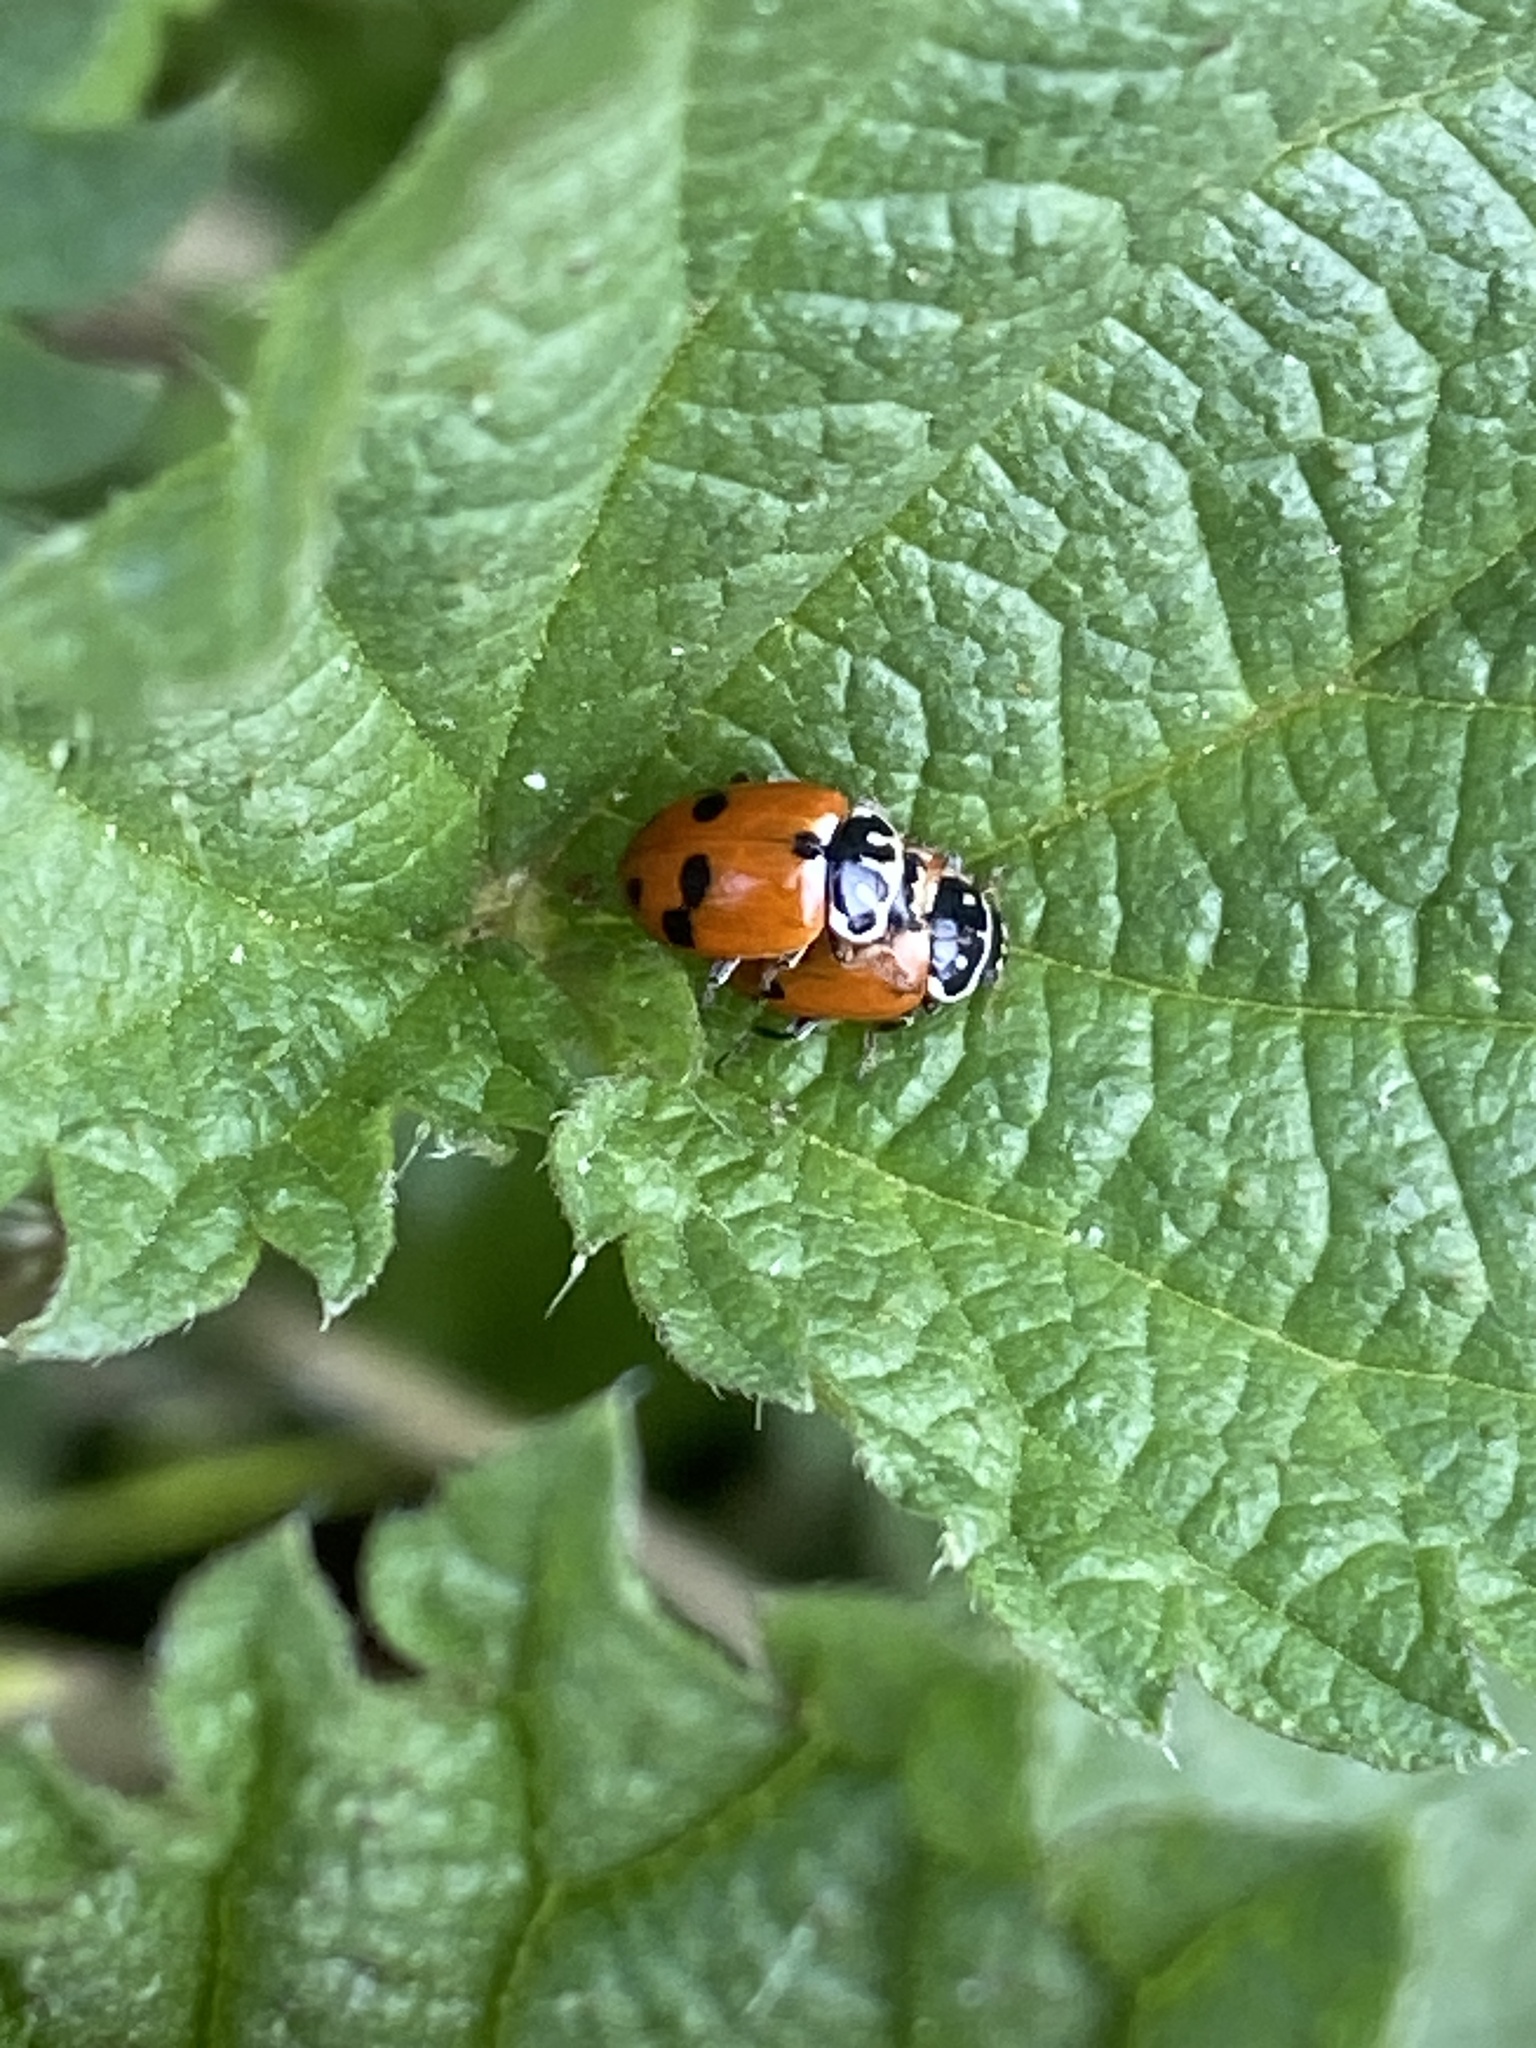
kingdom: Animalia
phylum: Arthropoda
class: Insecta
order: Coleoptera
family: Coccinellidae
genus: Hippodamia
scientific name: Hippodamia variegata
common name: Ladybird beetle
